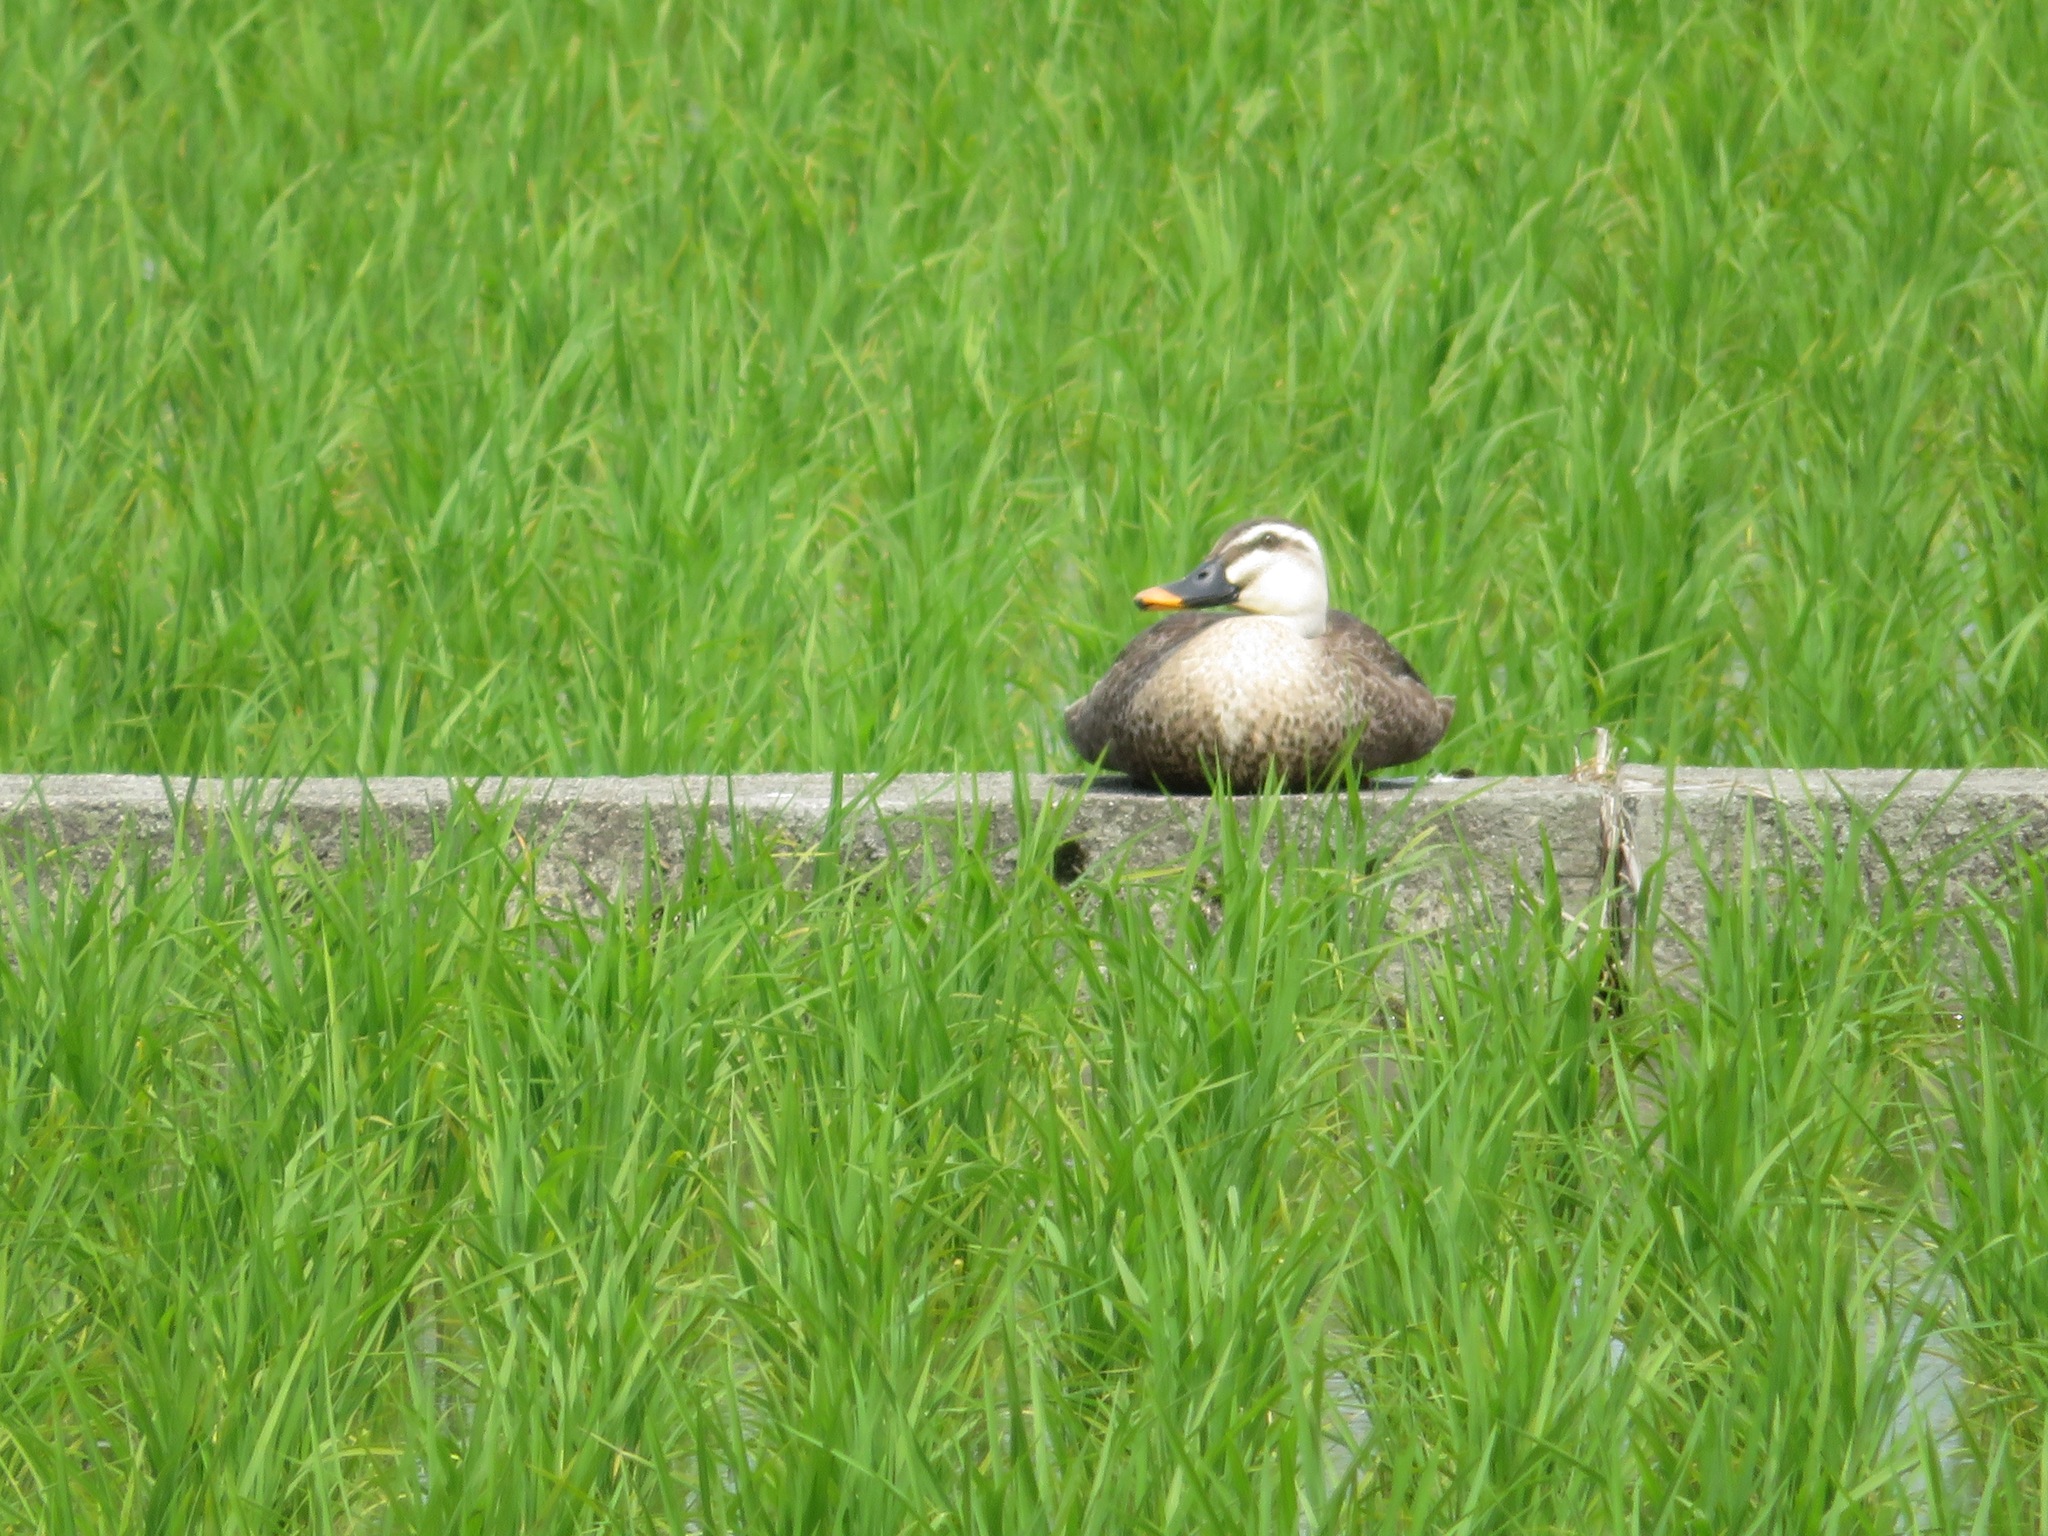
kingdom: Animalia
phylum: Chordata
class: Aves
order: Anseriformes
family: Anatidae
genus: Anas
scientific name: Anas zonorhyncha
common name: Eastern spot-billed duck
